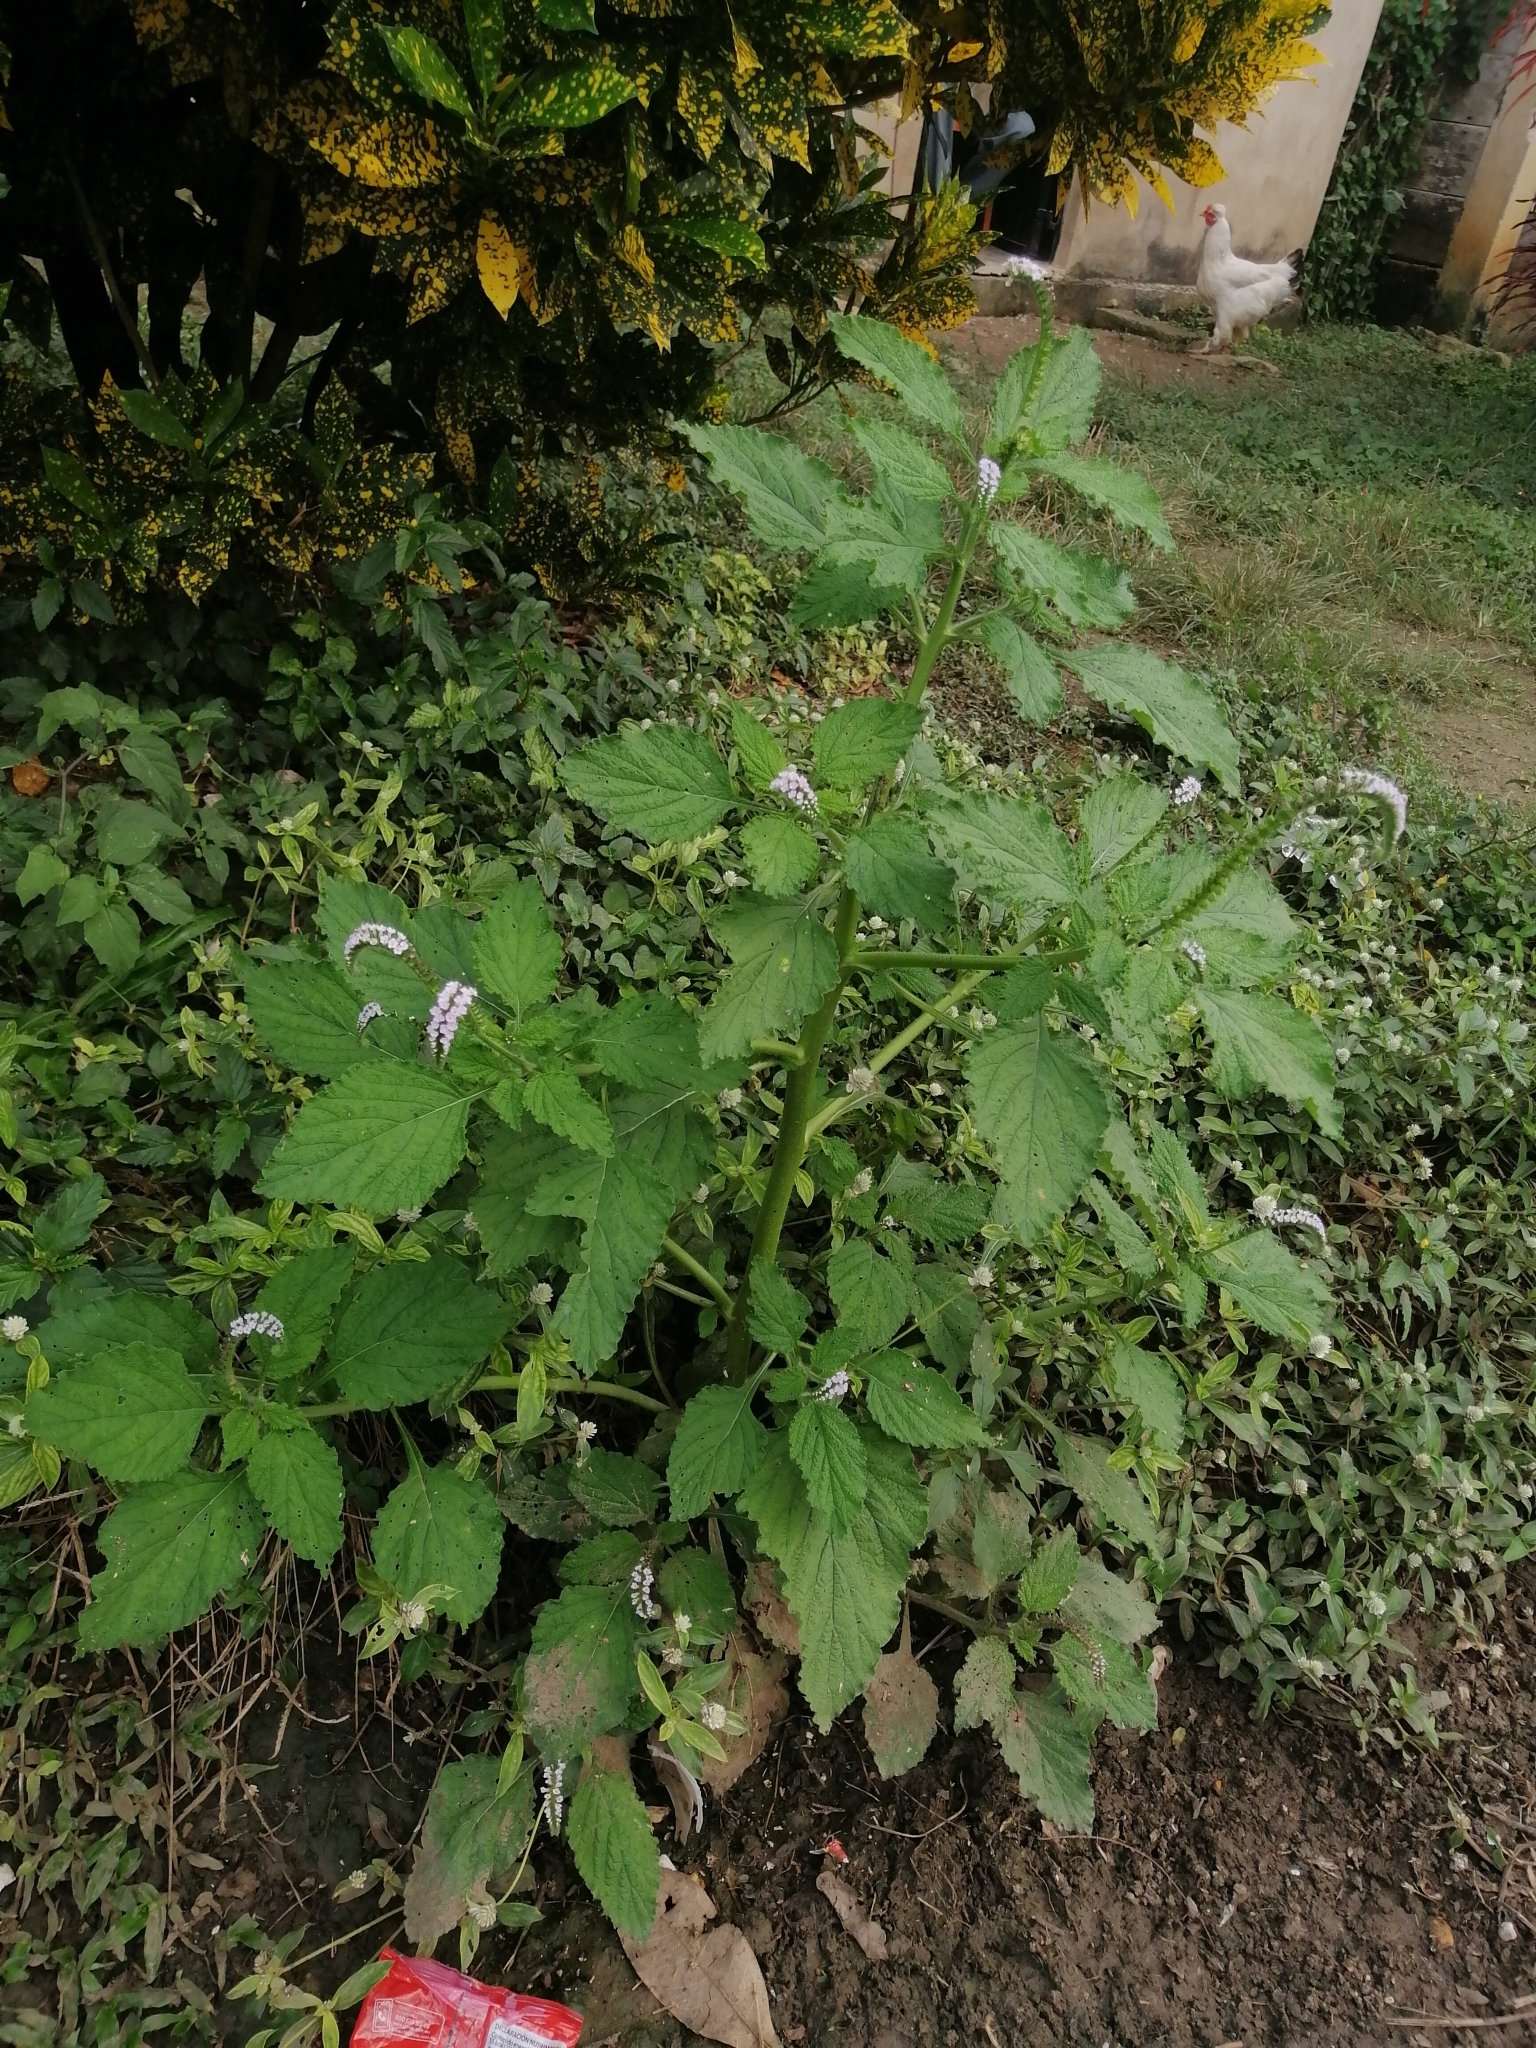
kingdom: Plantae
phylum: Tracheophyta
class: Magnoliopsida
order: Boraginales
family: Heliotropiaceae
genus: Heliotropium
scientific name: Heliotropium indicum
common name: Indian heliotrope
